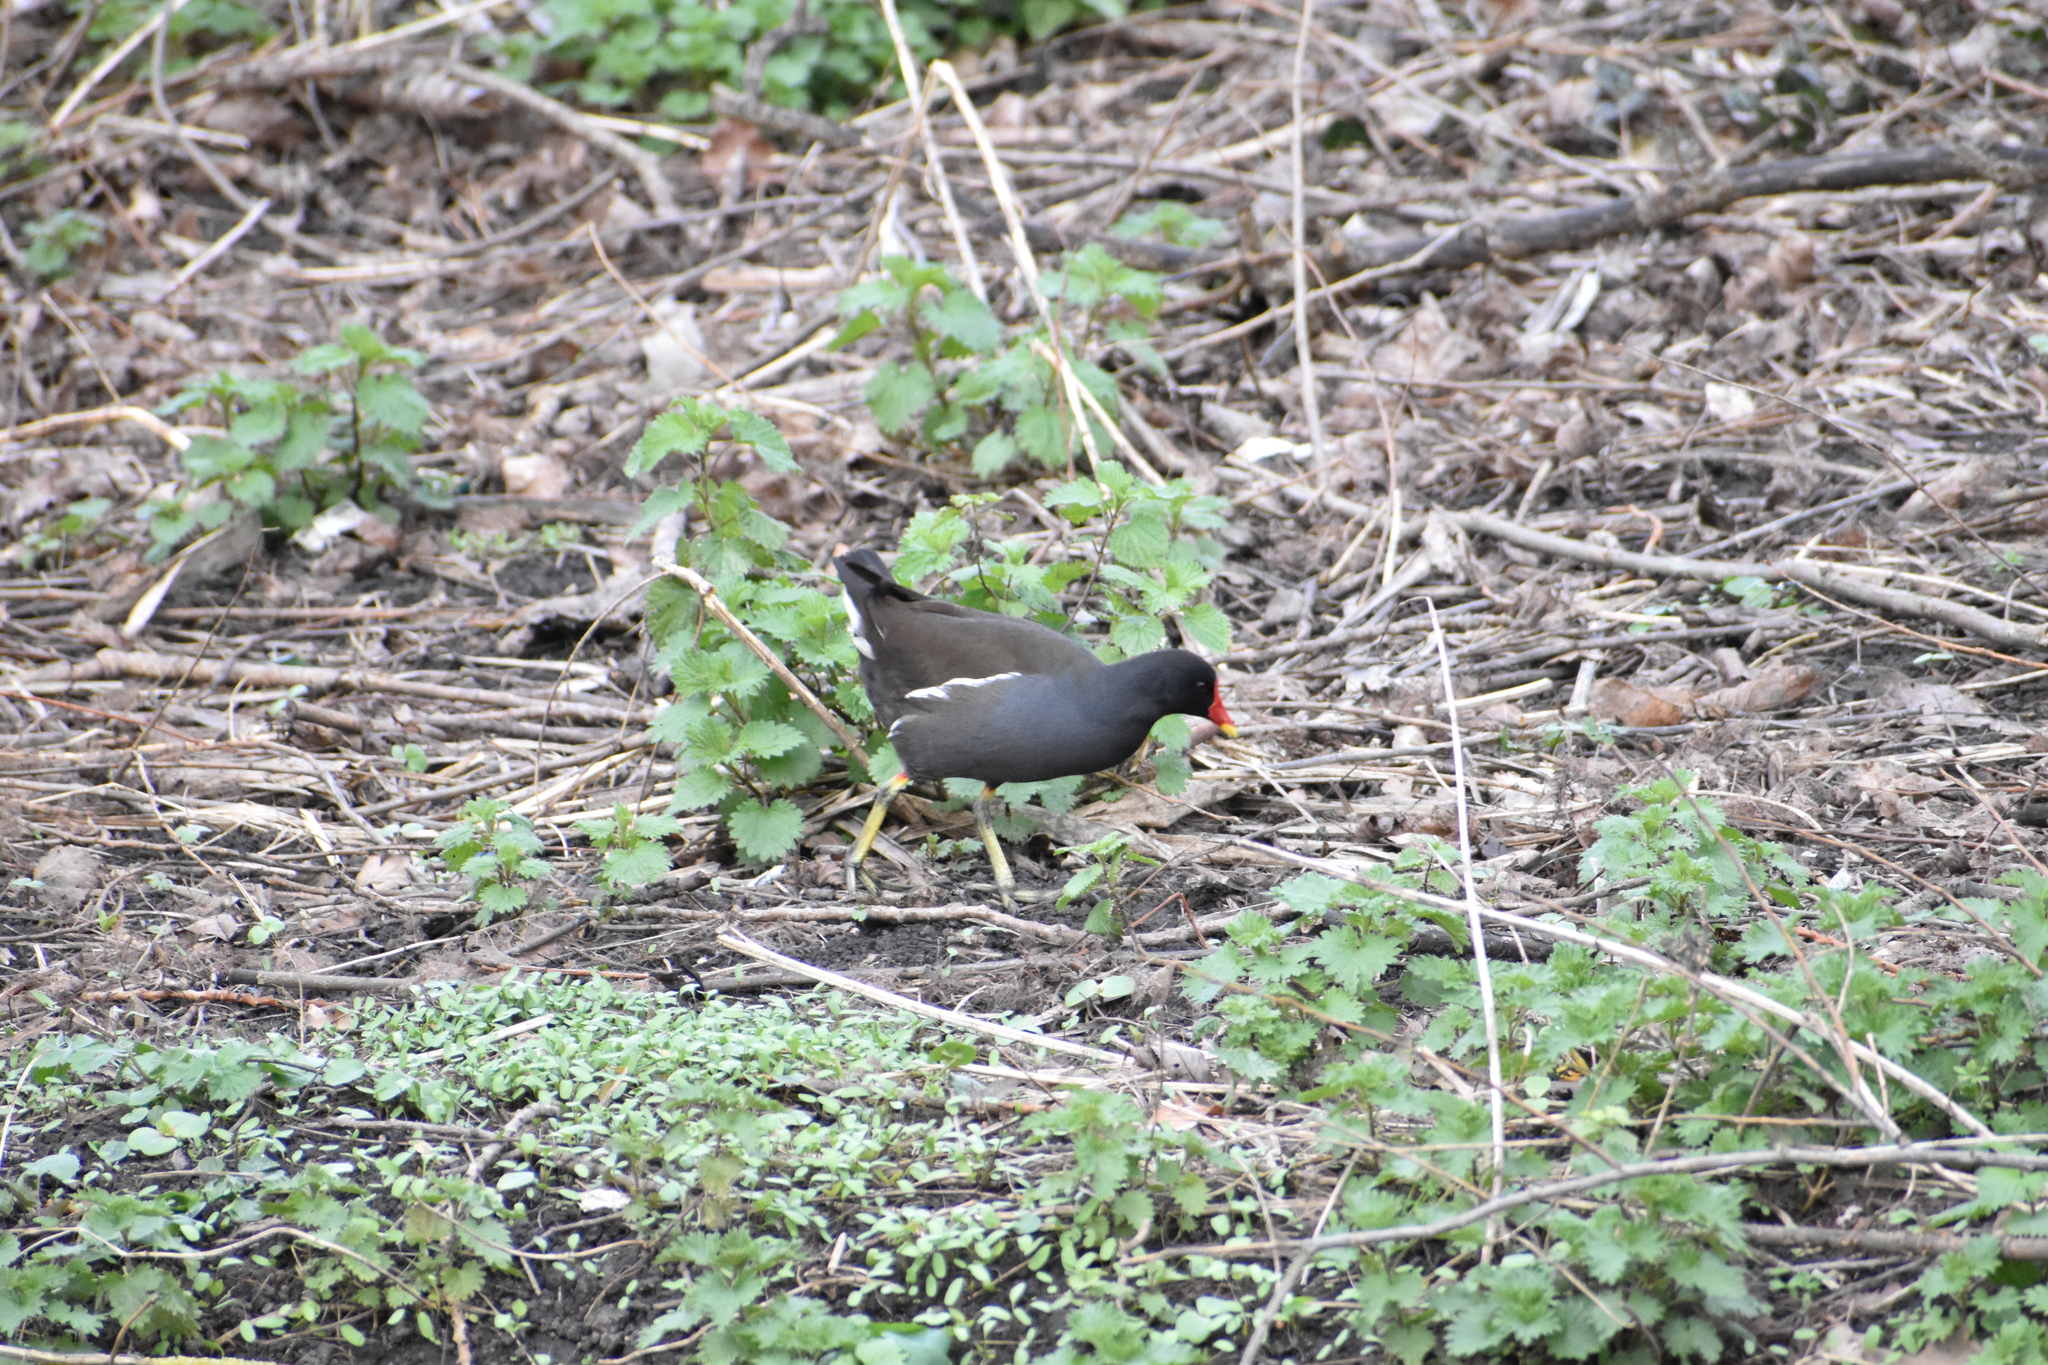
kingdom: Animalia
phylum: Chordata
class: Aves
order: Gruiformes
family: Rallidae
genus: Gallinula
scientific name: Gallinula chloropus
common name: Common moorhen
